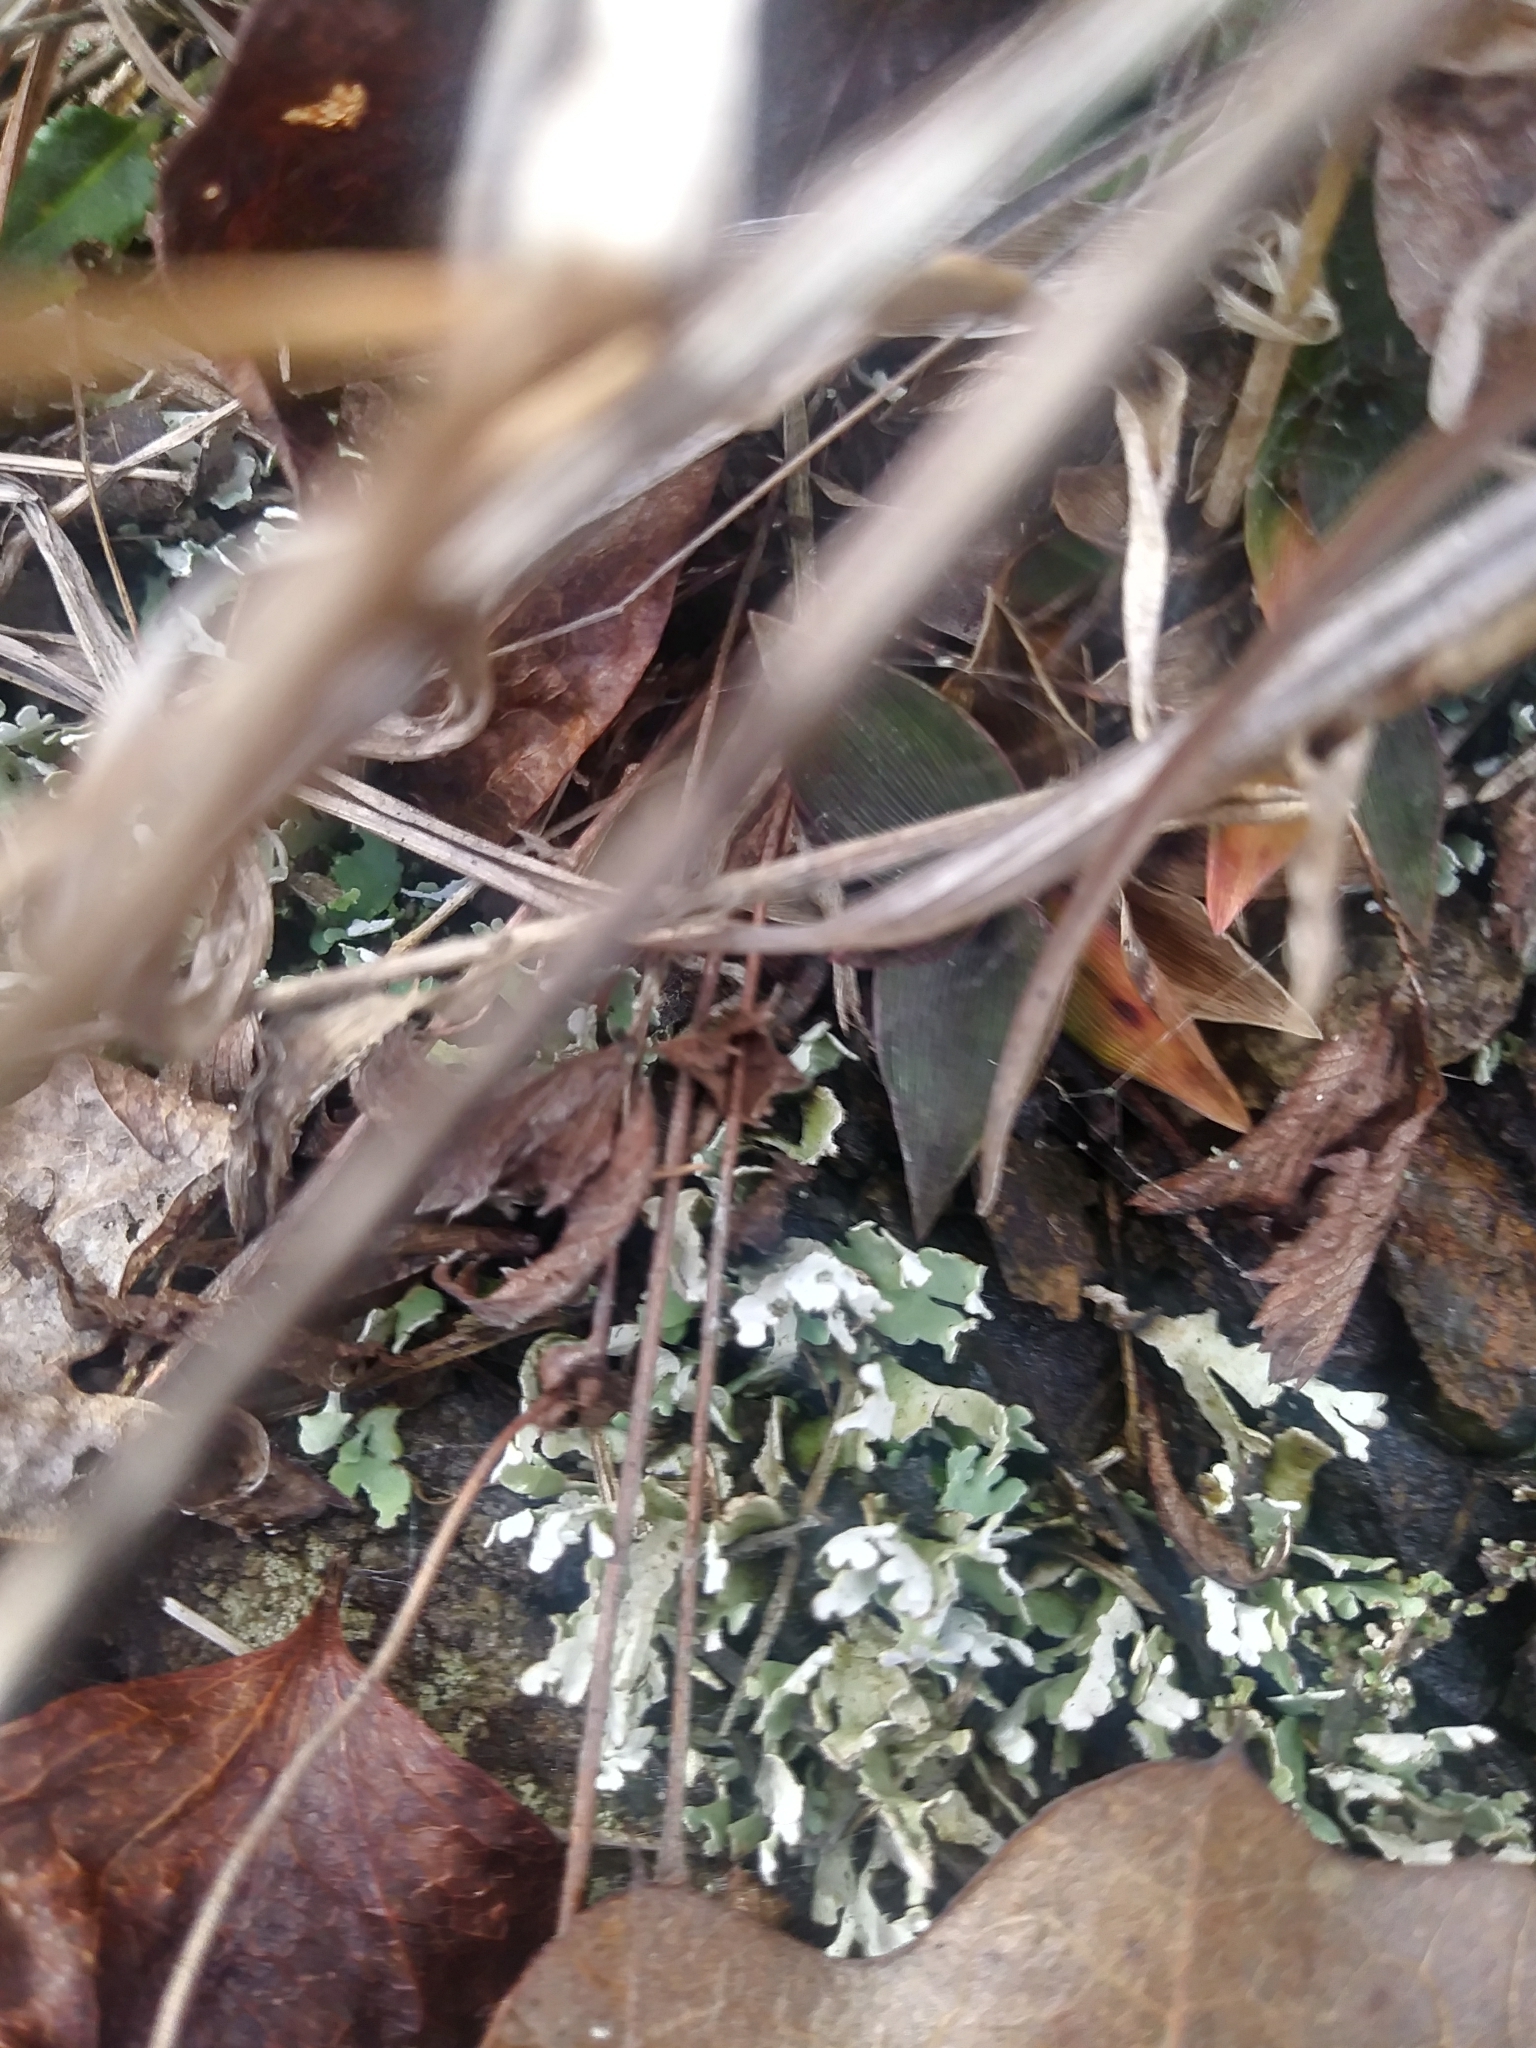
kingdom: Fungi
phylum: Ascomycota
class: Lecanoromycetes
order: Lecanorales
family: Cladoniaceae
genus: Cladonia
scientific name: Cladonia apodocarpa
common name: Stalkless cladonia
